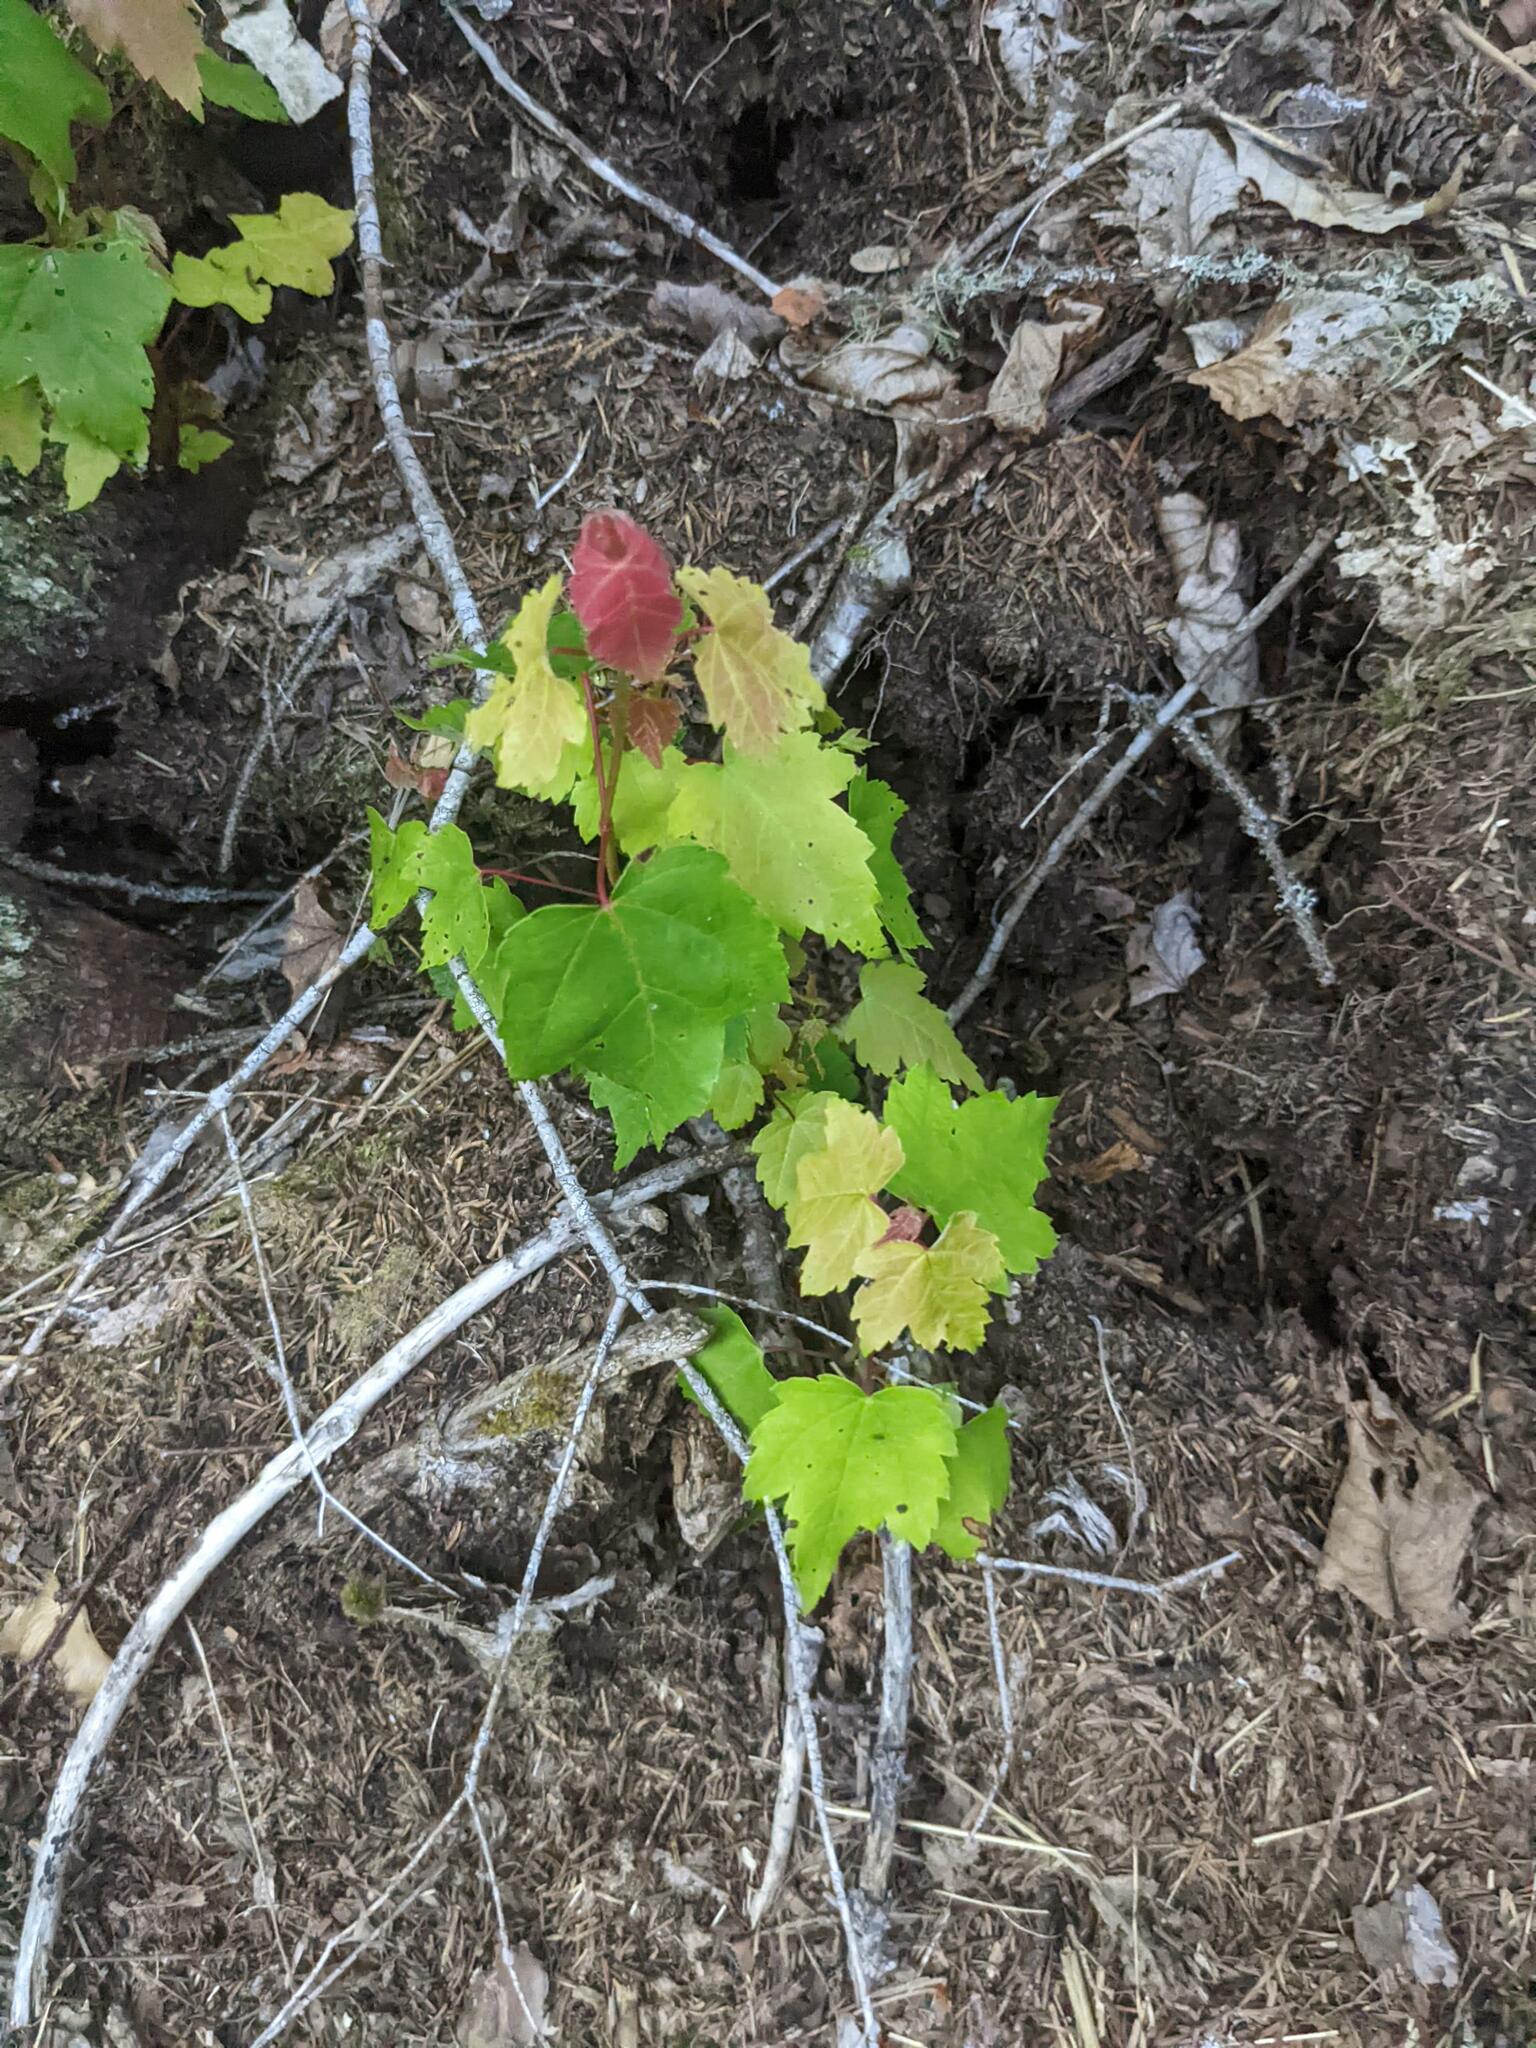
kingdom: Plantae
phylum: Tracheophyta
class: Magnoliopsida
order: Sapindales
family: Sapindaceae
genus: Acer
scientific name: Acer rubrum
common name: Red maple
